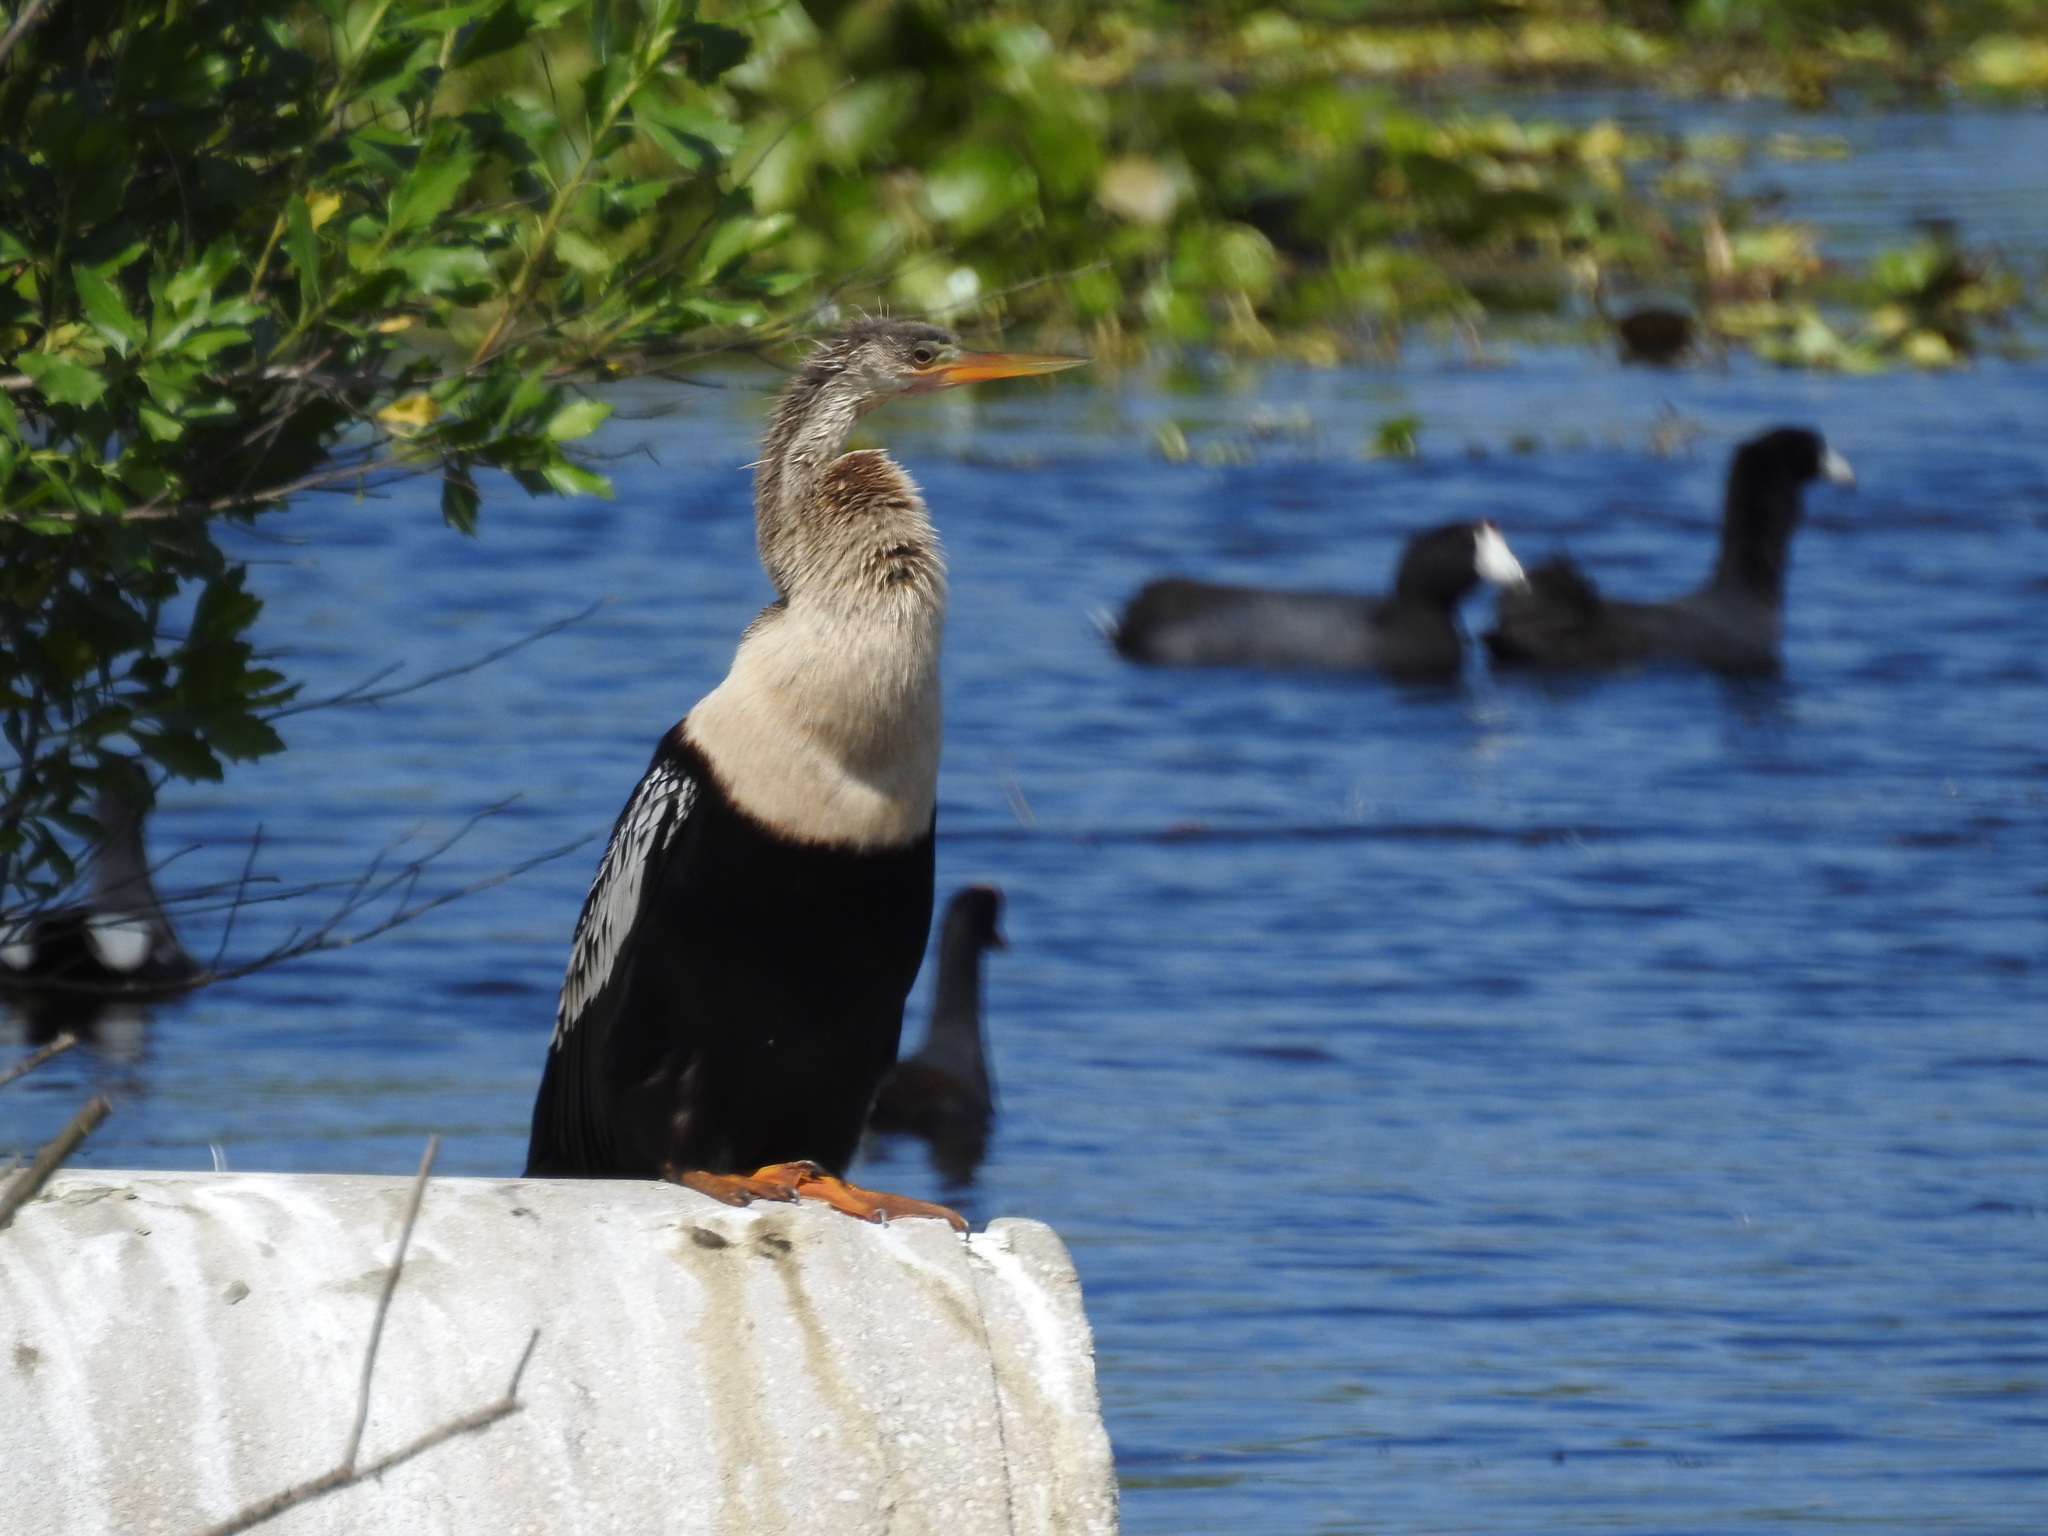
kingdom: Animalia
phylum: Chordata
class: Aves
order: Suliformes
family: Anhingidae
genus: Anhinga
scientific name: Anhinga anhinga
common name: Anhinga
